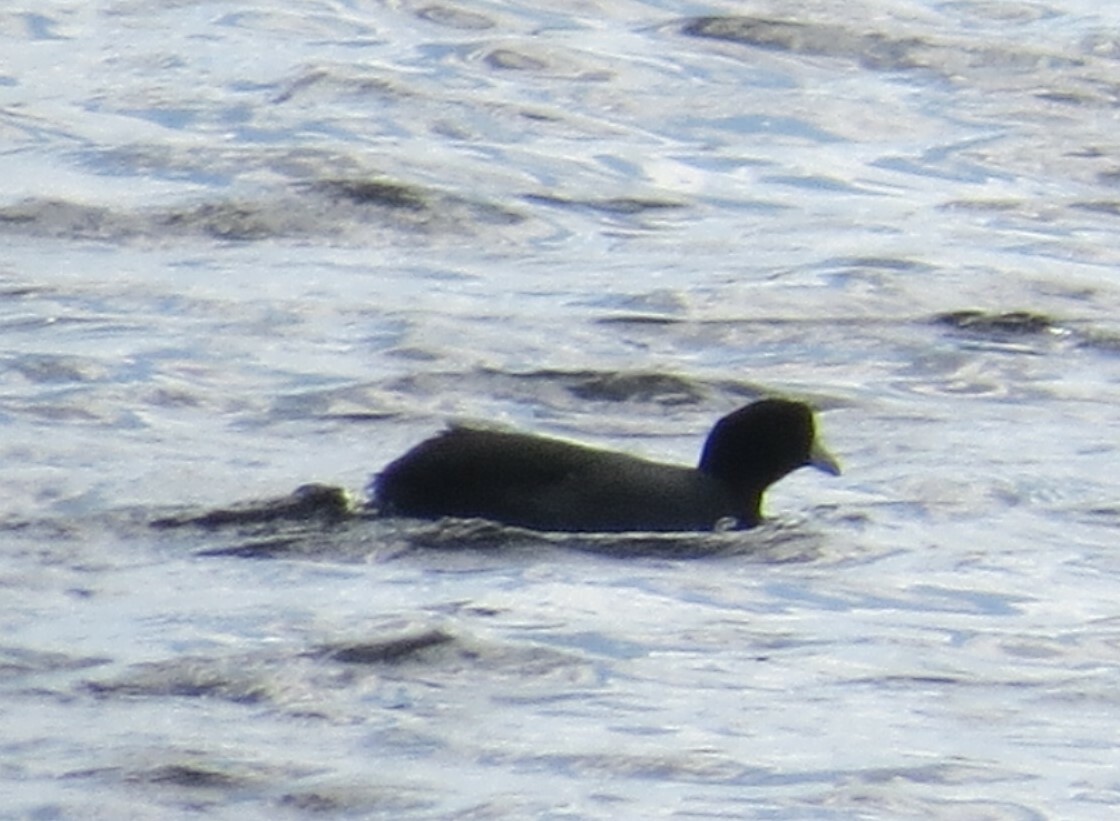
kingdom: Animalia
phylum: Chordata
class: Aves
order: Gruiformes
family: Rallidae
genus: Fulica
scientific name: Fulica americana
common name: American coot
